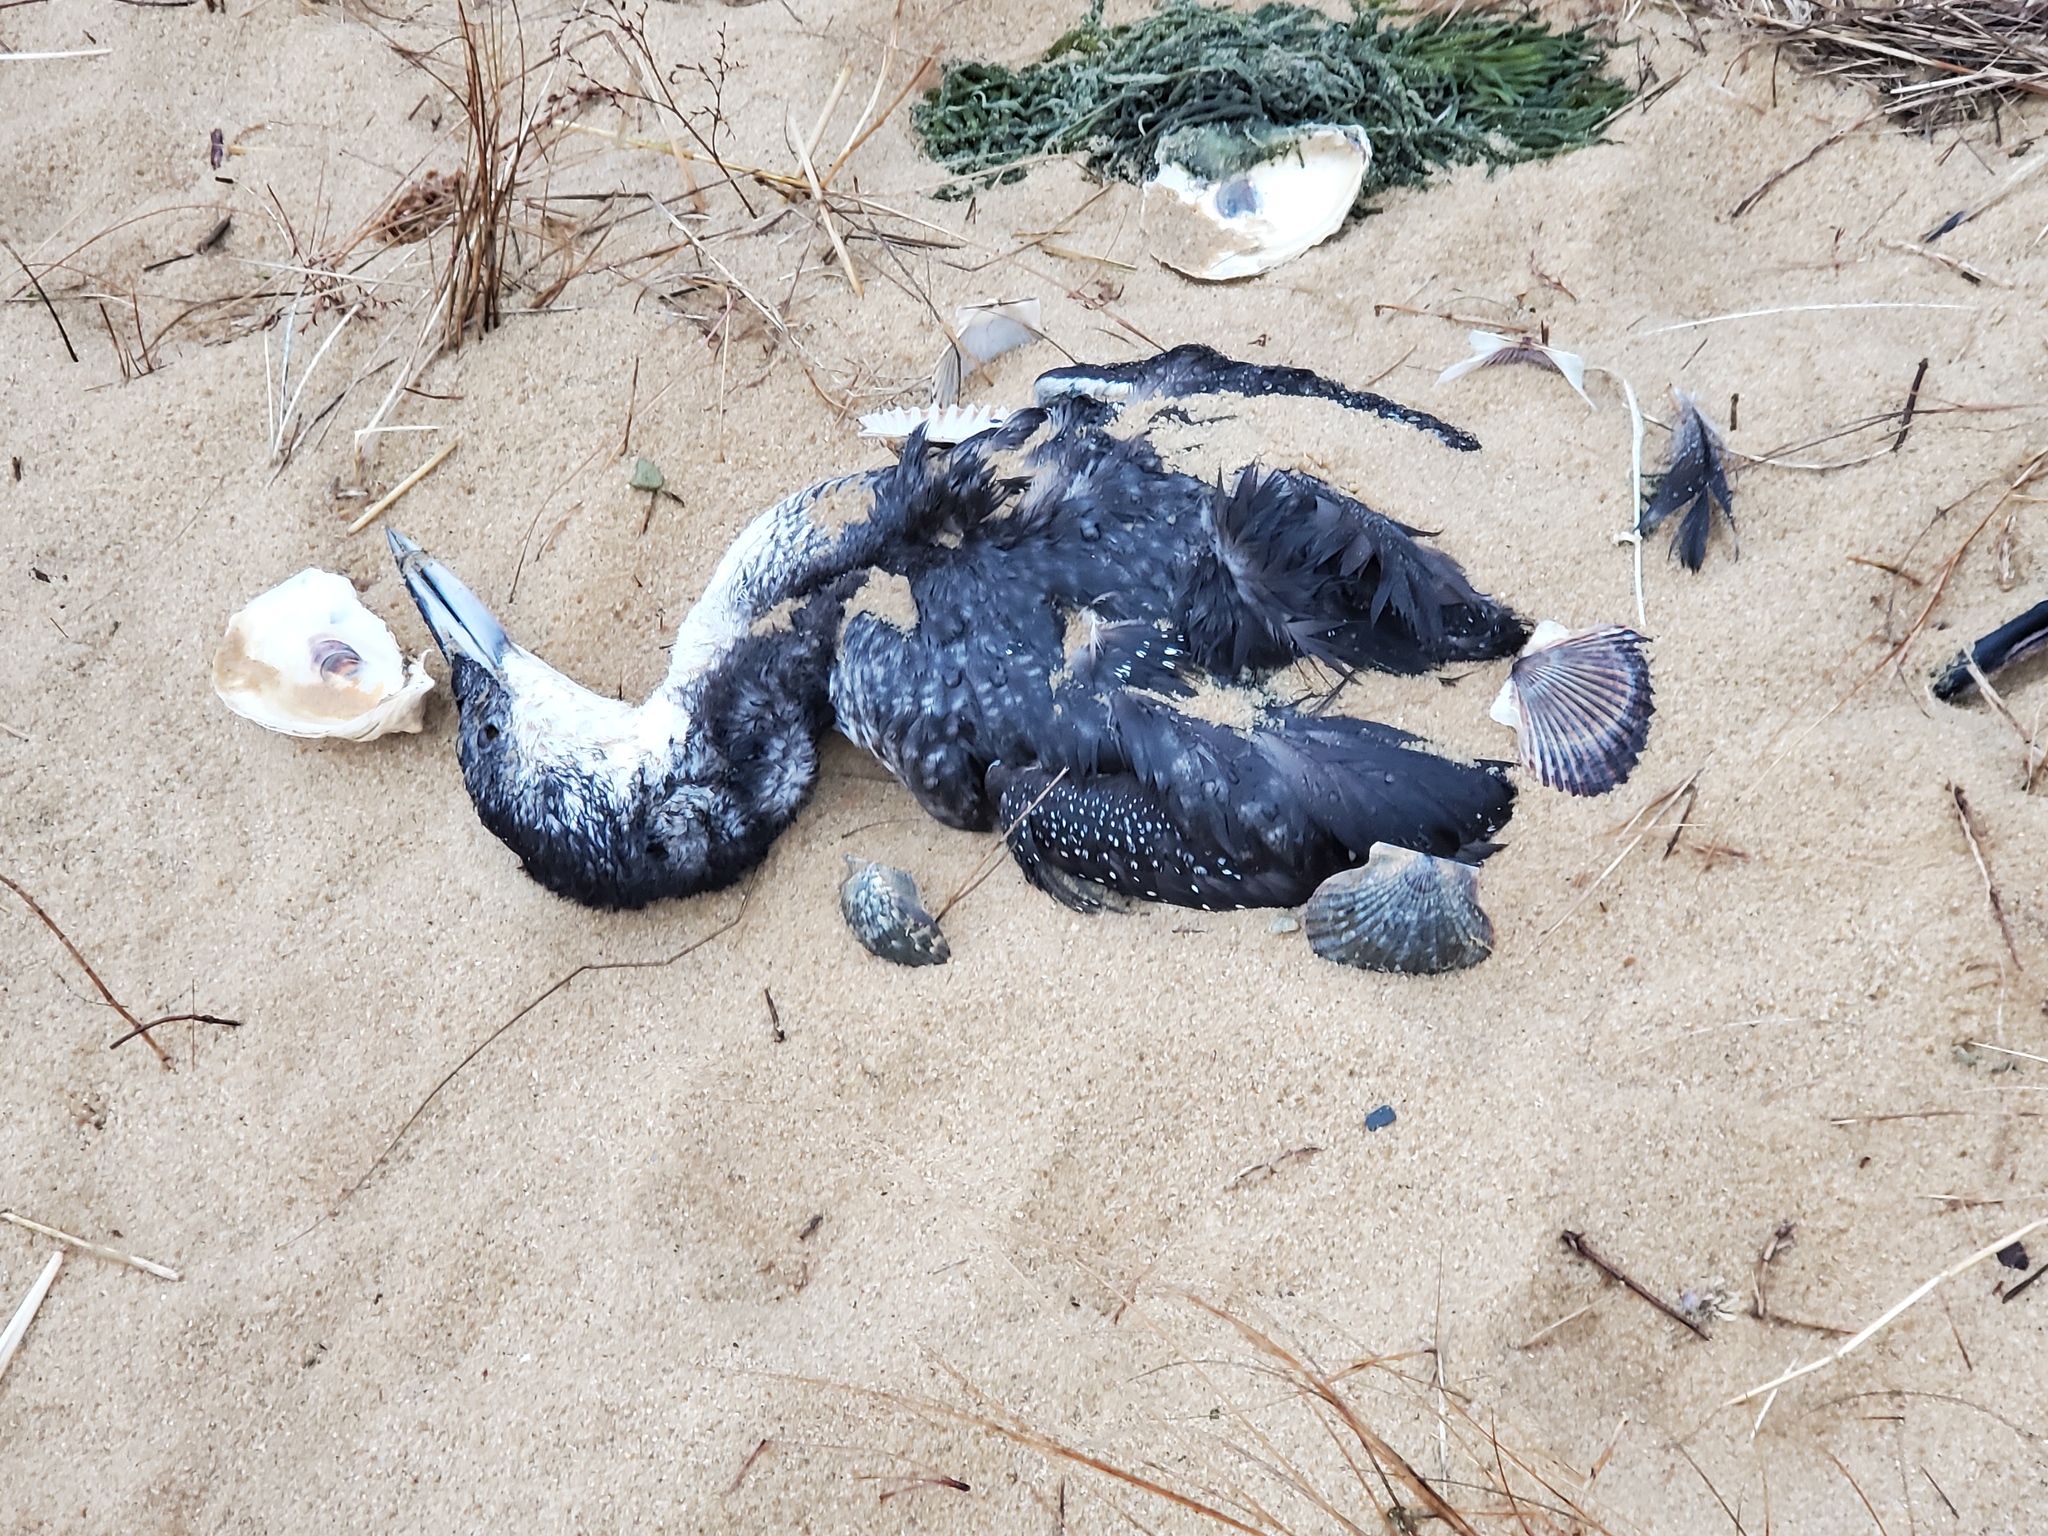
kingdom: Animalia
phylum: Chordata
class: Aves
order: Gaviiformes
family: Gaviidae
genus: Gavia
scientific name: Gavia immer
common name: Common loon
